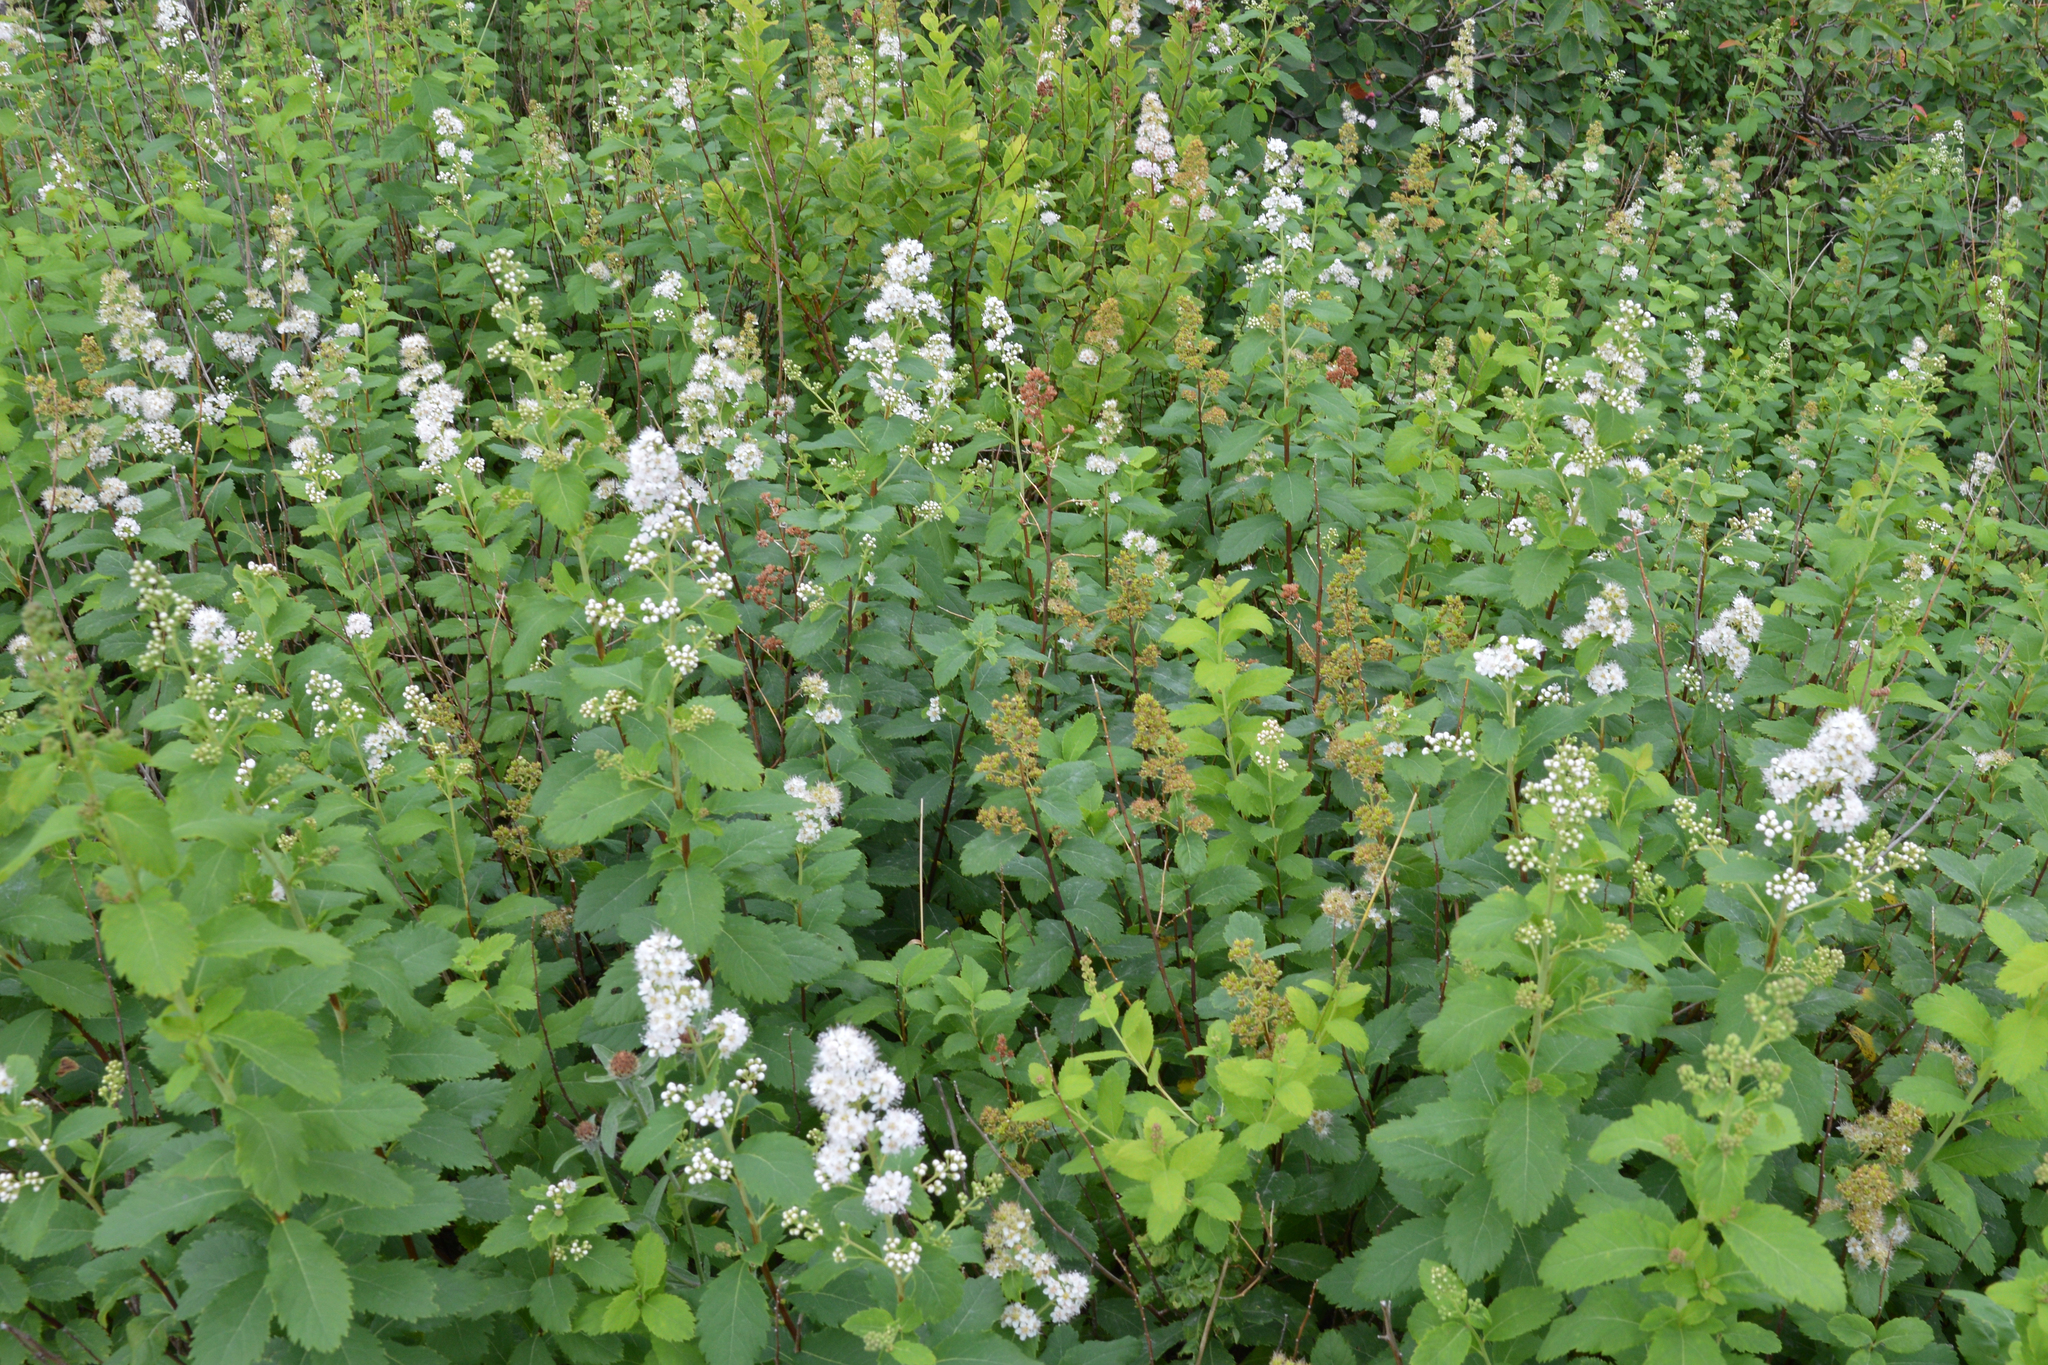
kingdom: Plantae
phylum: Tracheophyta
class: Magnoliopsida
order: Rosales
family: Rosaceae
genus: Spiraea
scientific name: Spiraea alba
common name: Pale bridewort
